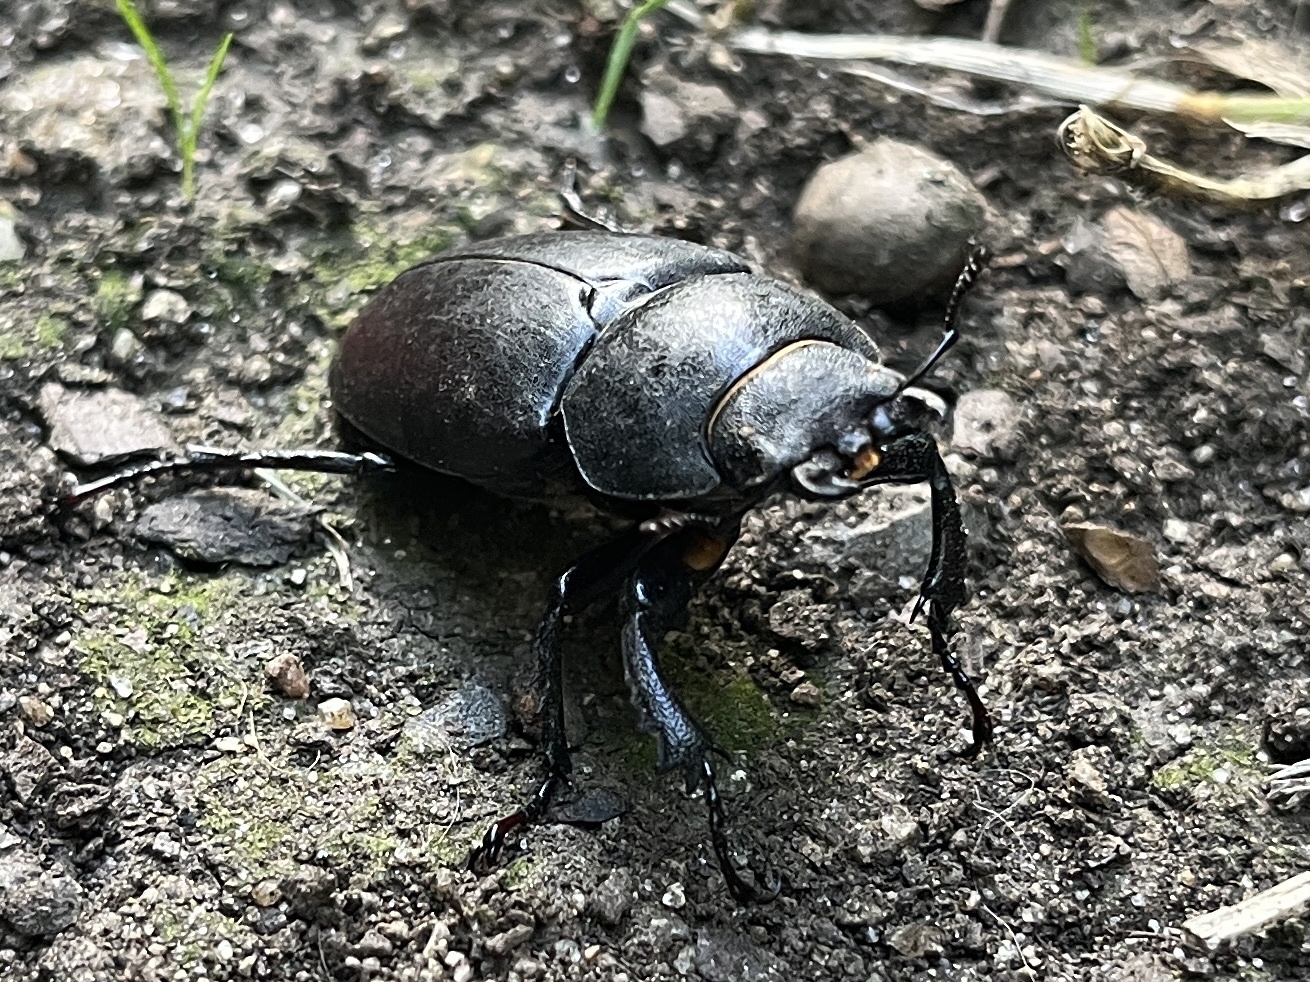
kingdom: Animalia
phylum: Arthropoda
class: Insecta
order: Coleoptera
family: Lucanidae
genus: Lucanus
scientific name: Lucanus cervus
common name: Stag beetle
